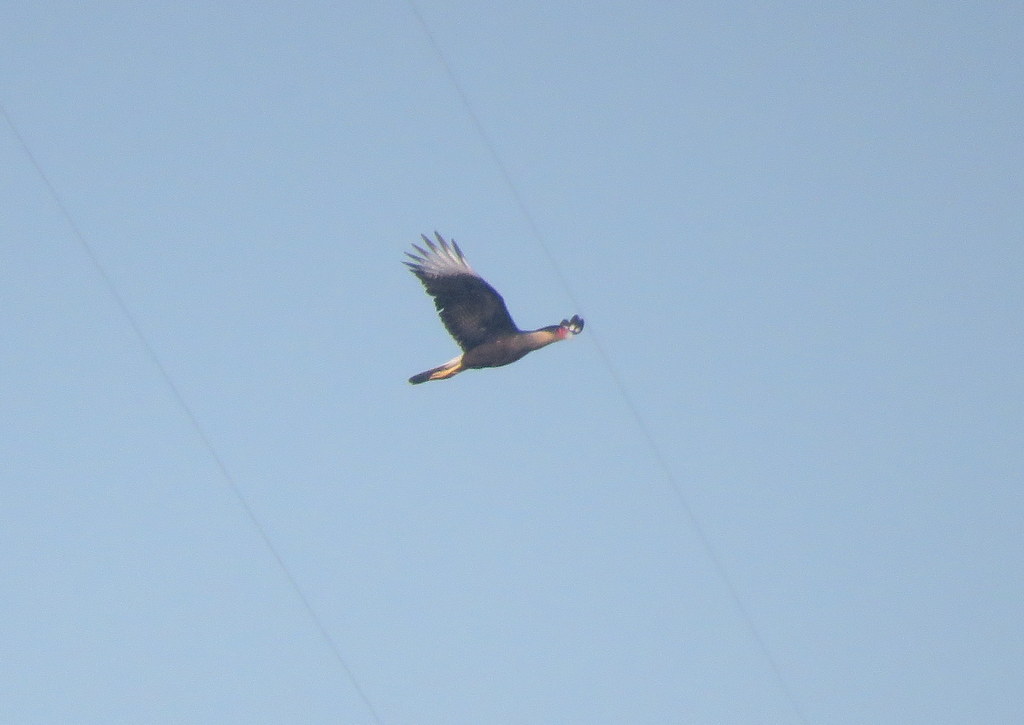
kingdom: Animalia
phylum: Chordata
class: Aves
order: Falconiformes
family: Falconidae
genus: Caracara
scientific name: Caracara plancus
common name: Southern caracara
